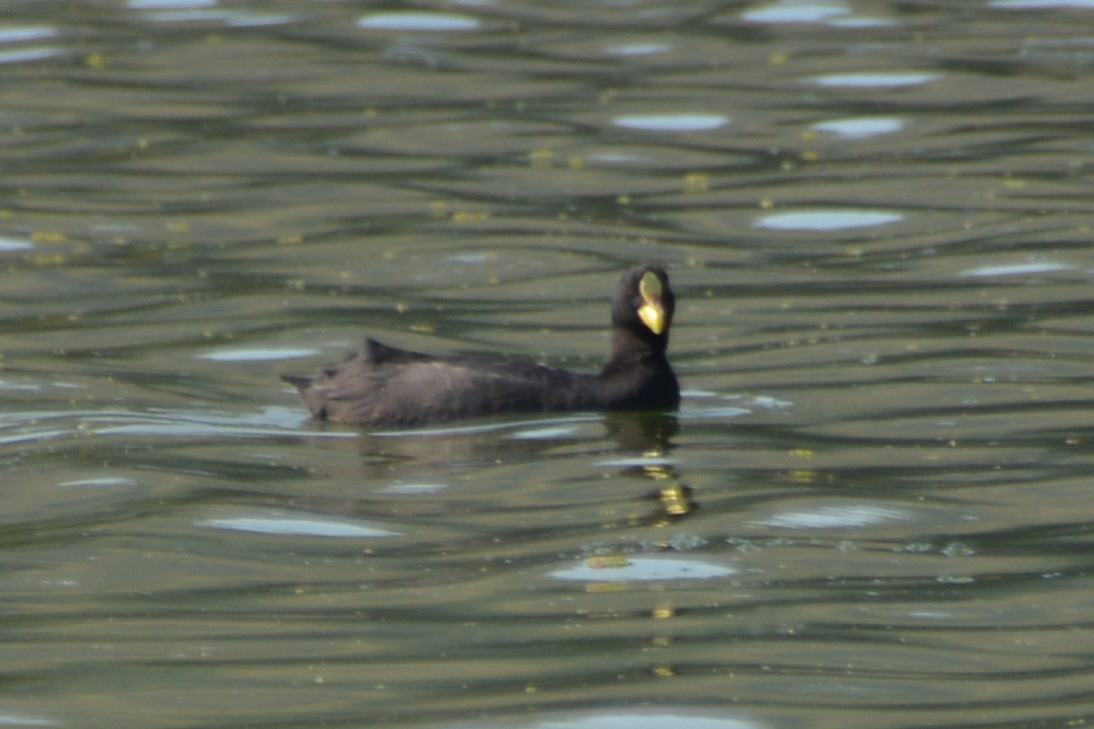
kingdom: Animalia
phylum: Chordata
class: Aves
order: Gruiformes
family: Rallidae
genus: Fulica
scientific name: Fulica armillata
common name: Red-gartered coot
